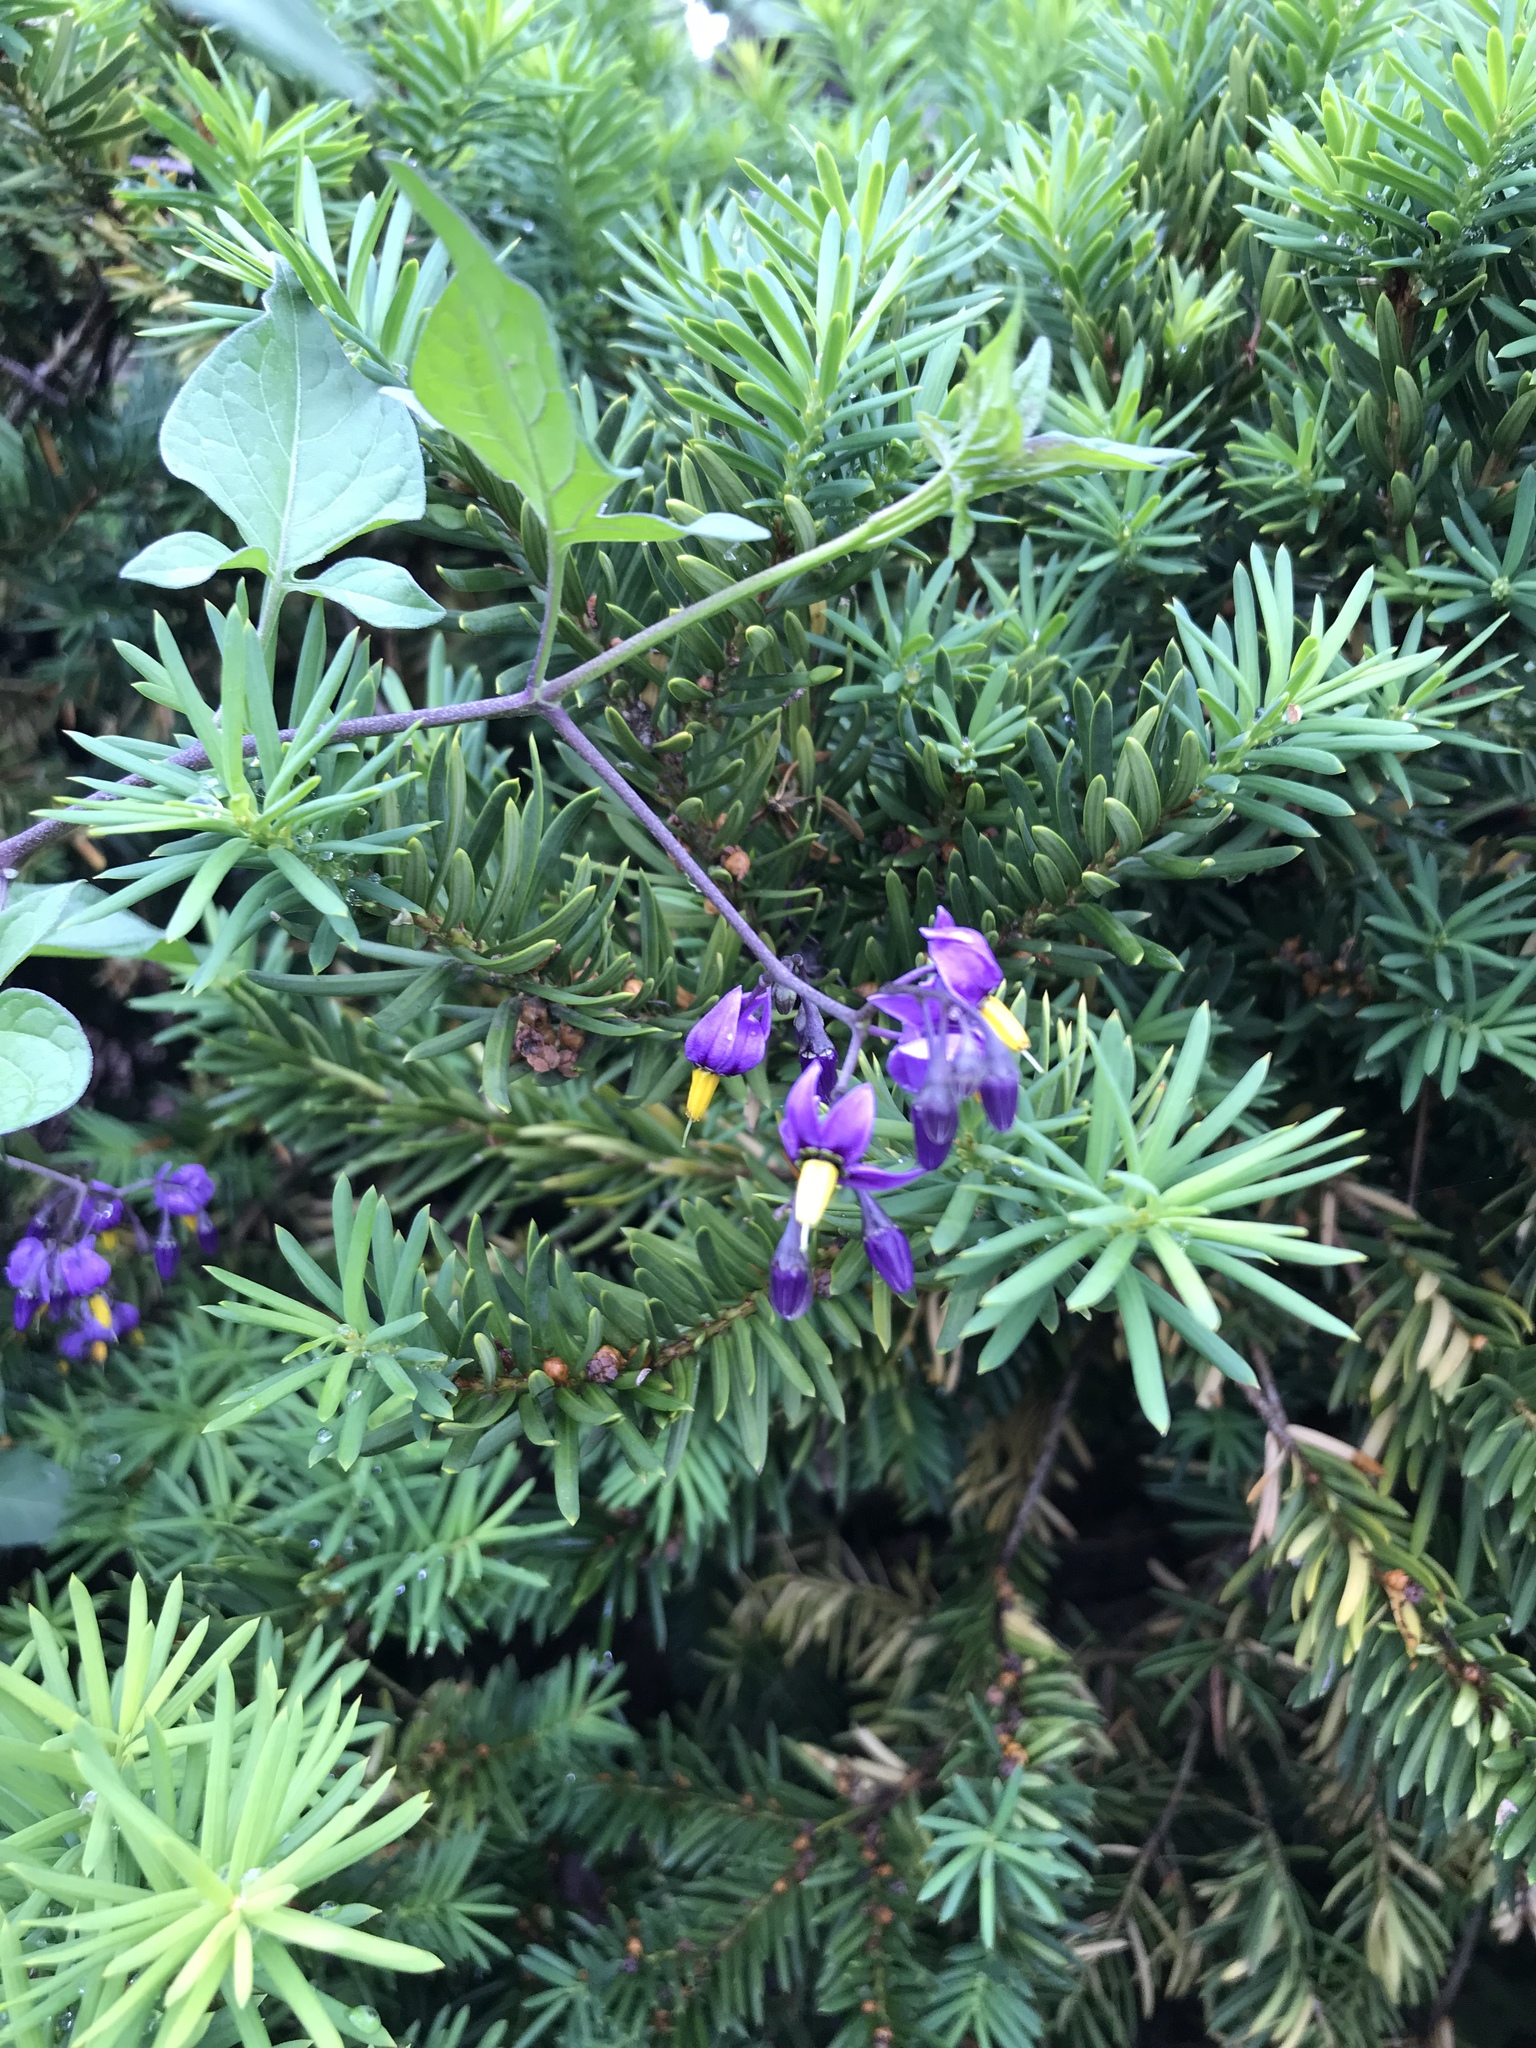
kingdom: Plantae
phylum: Tracheophyta
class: Magnoliopsida
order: Solanales
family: Solanaceae
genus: Solanum
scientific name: Solanum dulcamara
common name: Climbing nightshade
